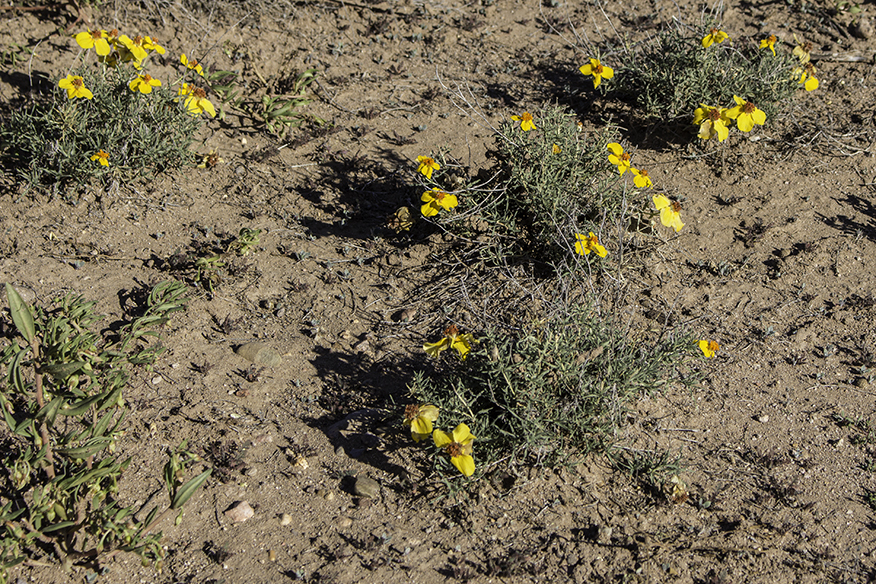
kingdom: Plantae
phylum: Tracheophyta
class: Magnoliopsida
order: Asterales
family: Asteraceae
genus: Zinnia
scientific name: Zinnia grandiflora
